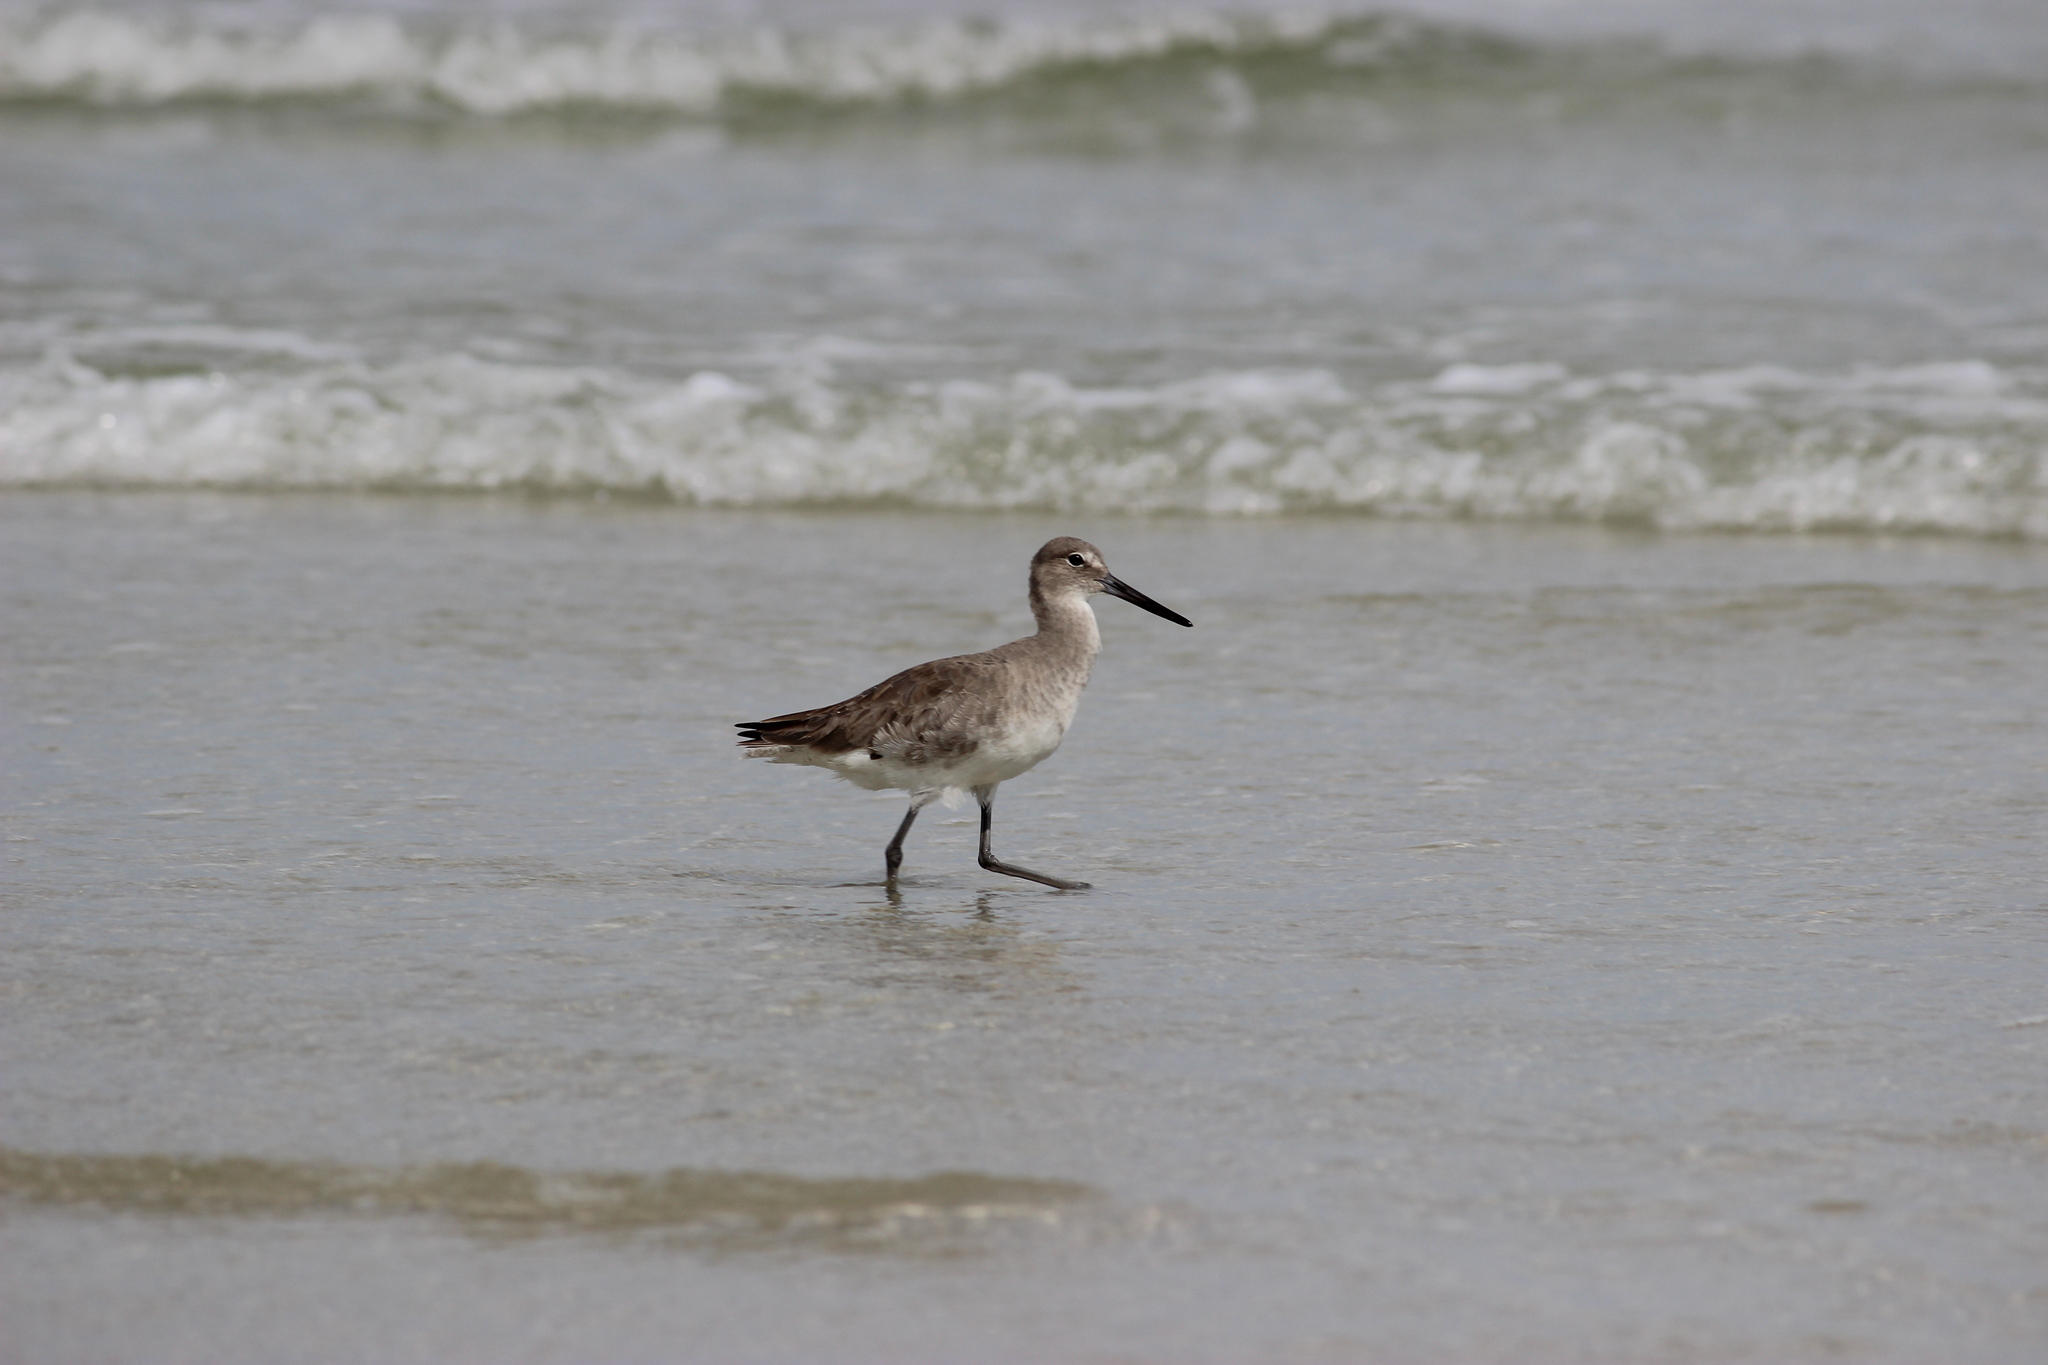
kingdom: Animalia
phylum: Chordata
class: Aves
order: Charadriiformes
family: Scolopacidae
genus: Tringa
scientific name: Tringa semipalmata
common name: Willet
